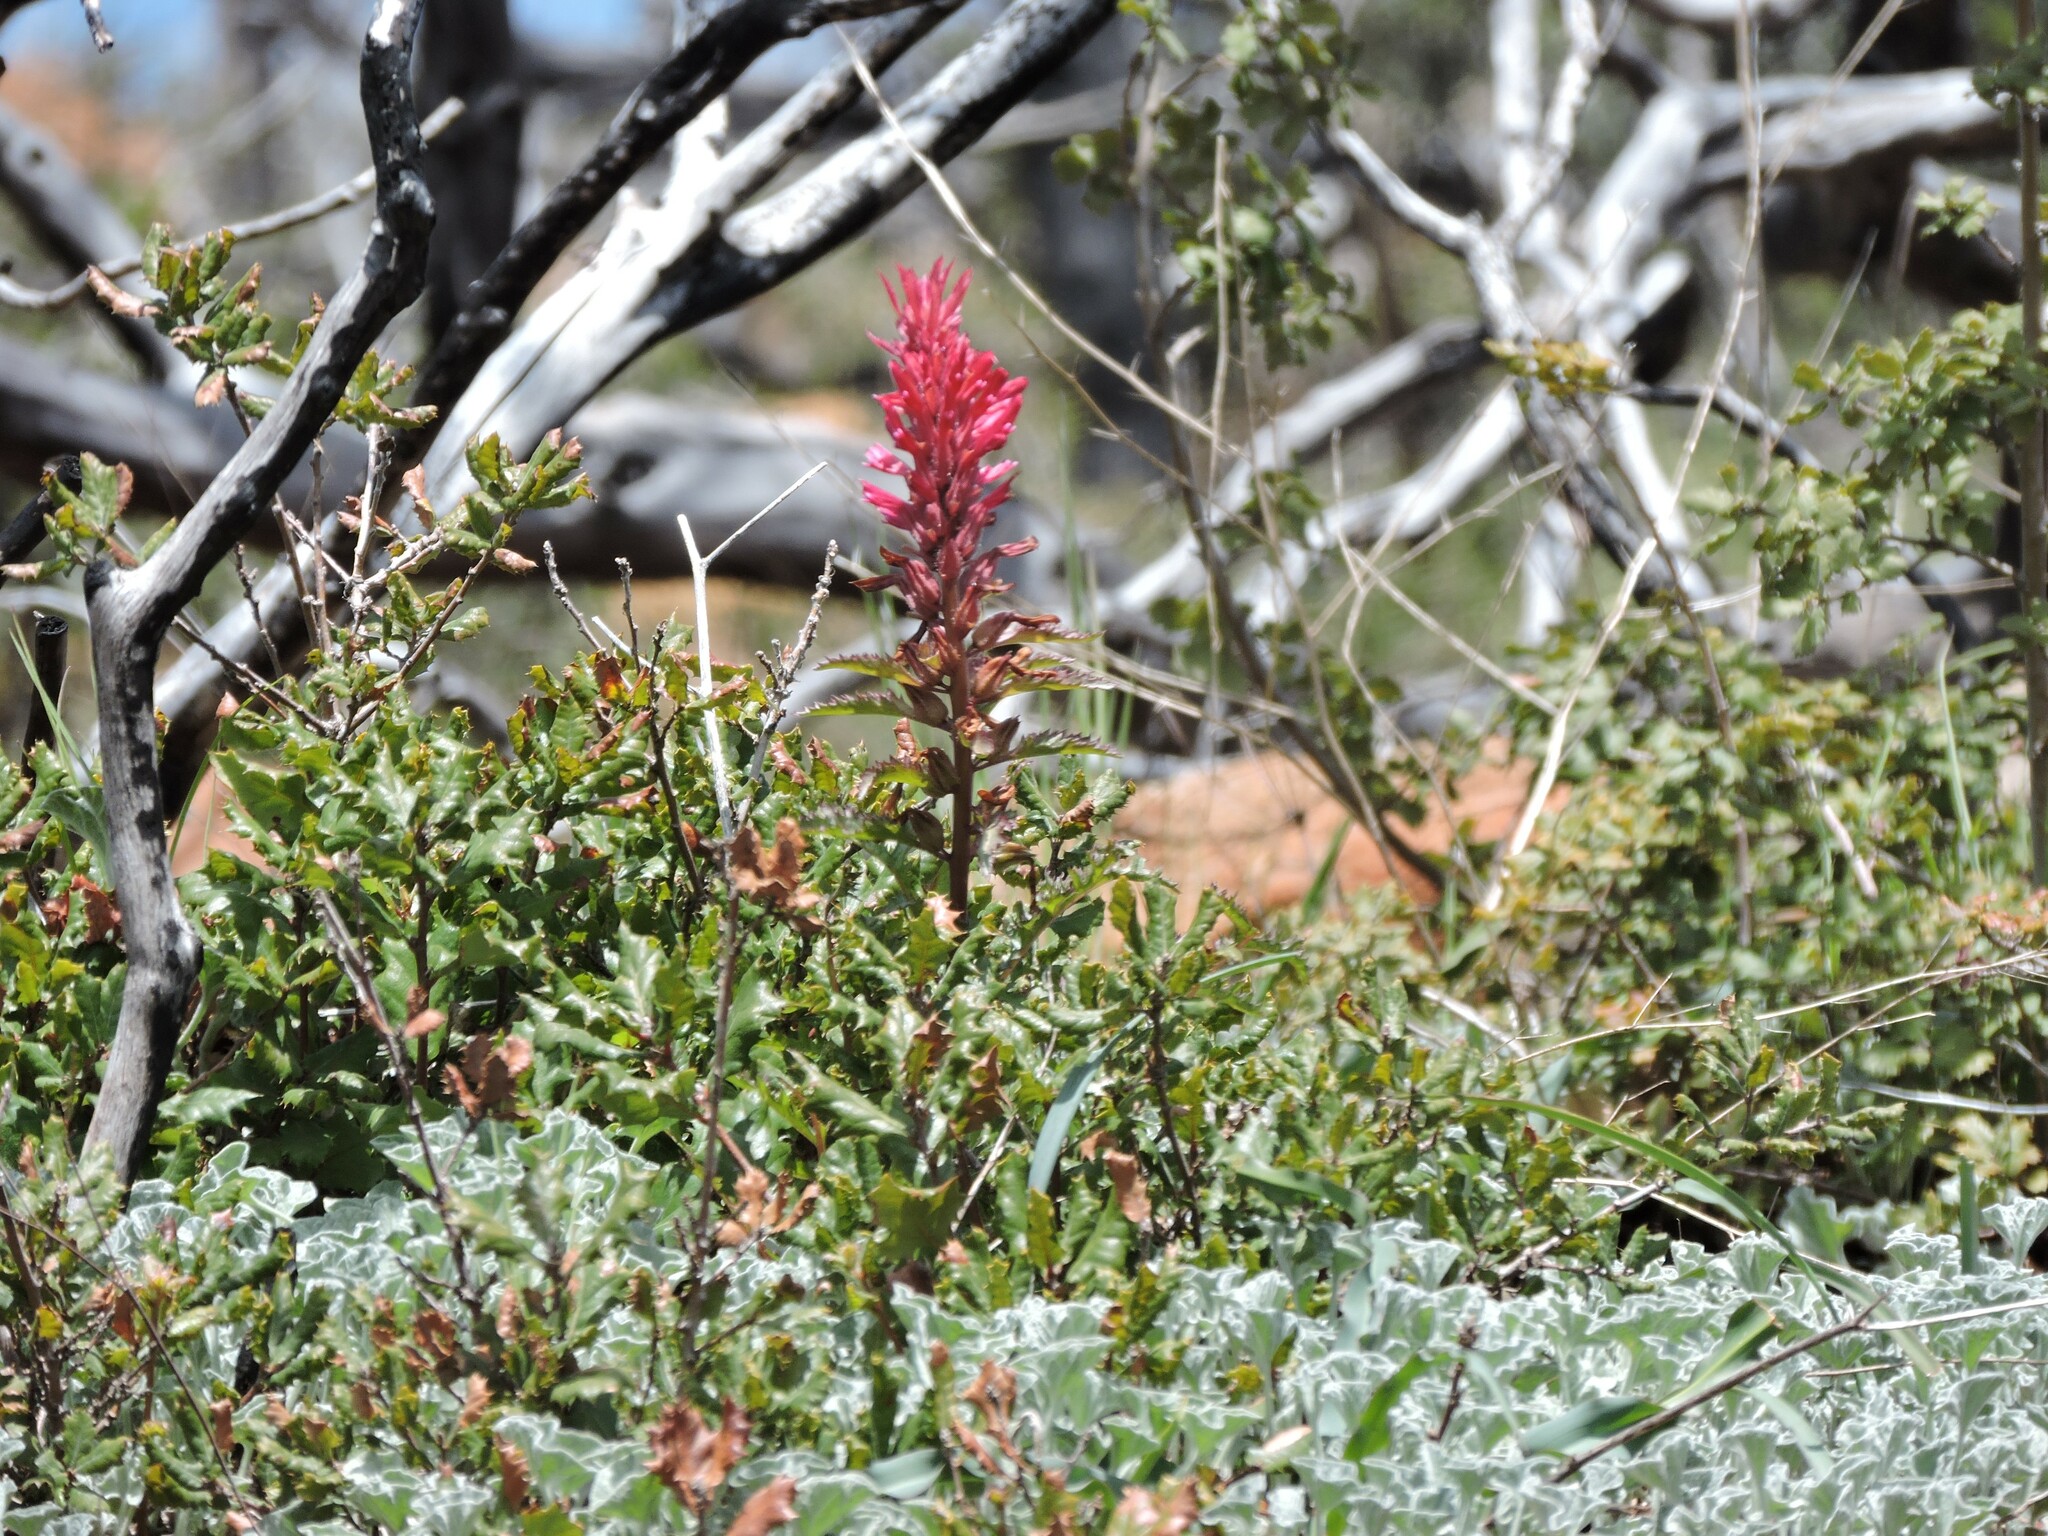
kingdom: Plantae
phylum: Tracheophyta
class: Magnoliopsida
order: Lamiales
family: Orobanchaceae
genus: Pedicularis
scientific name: Pedicularis densiflora
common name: Indian warrior
